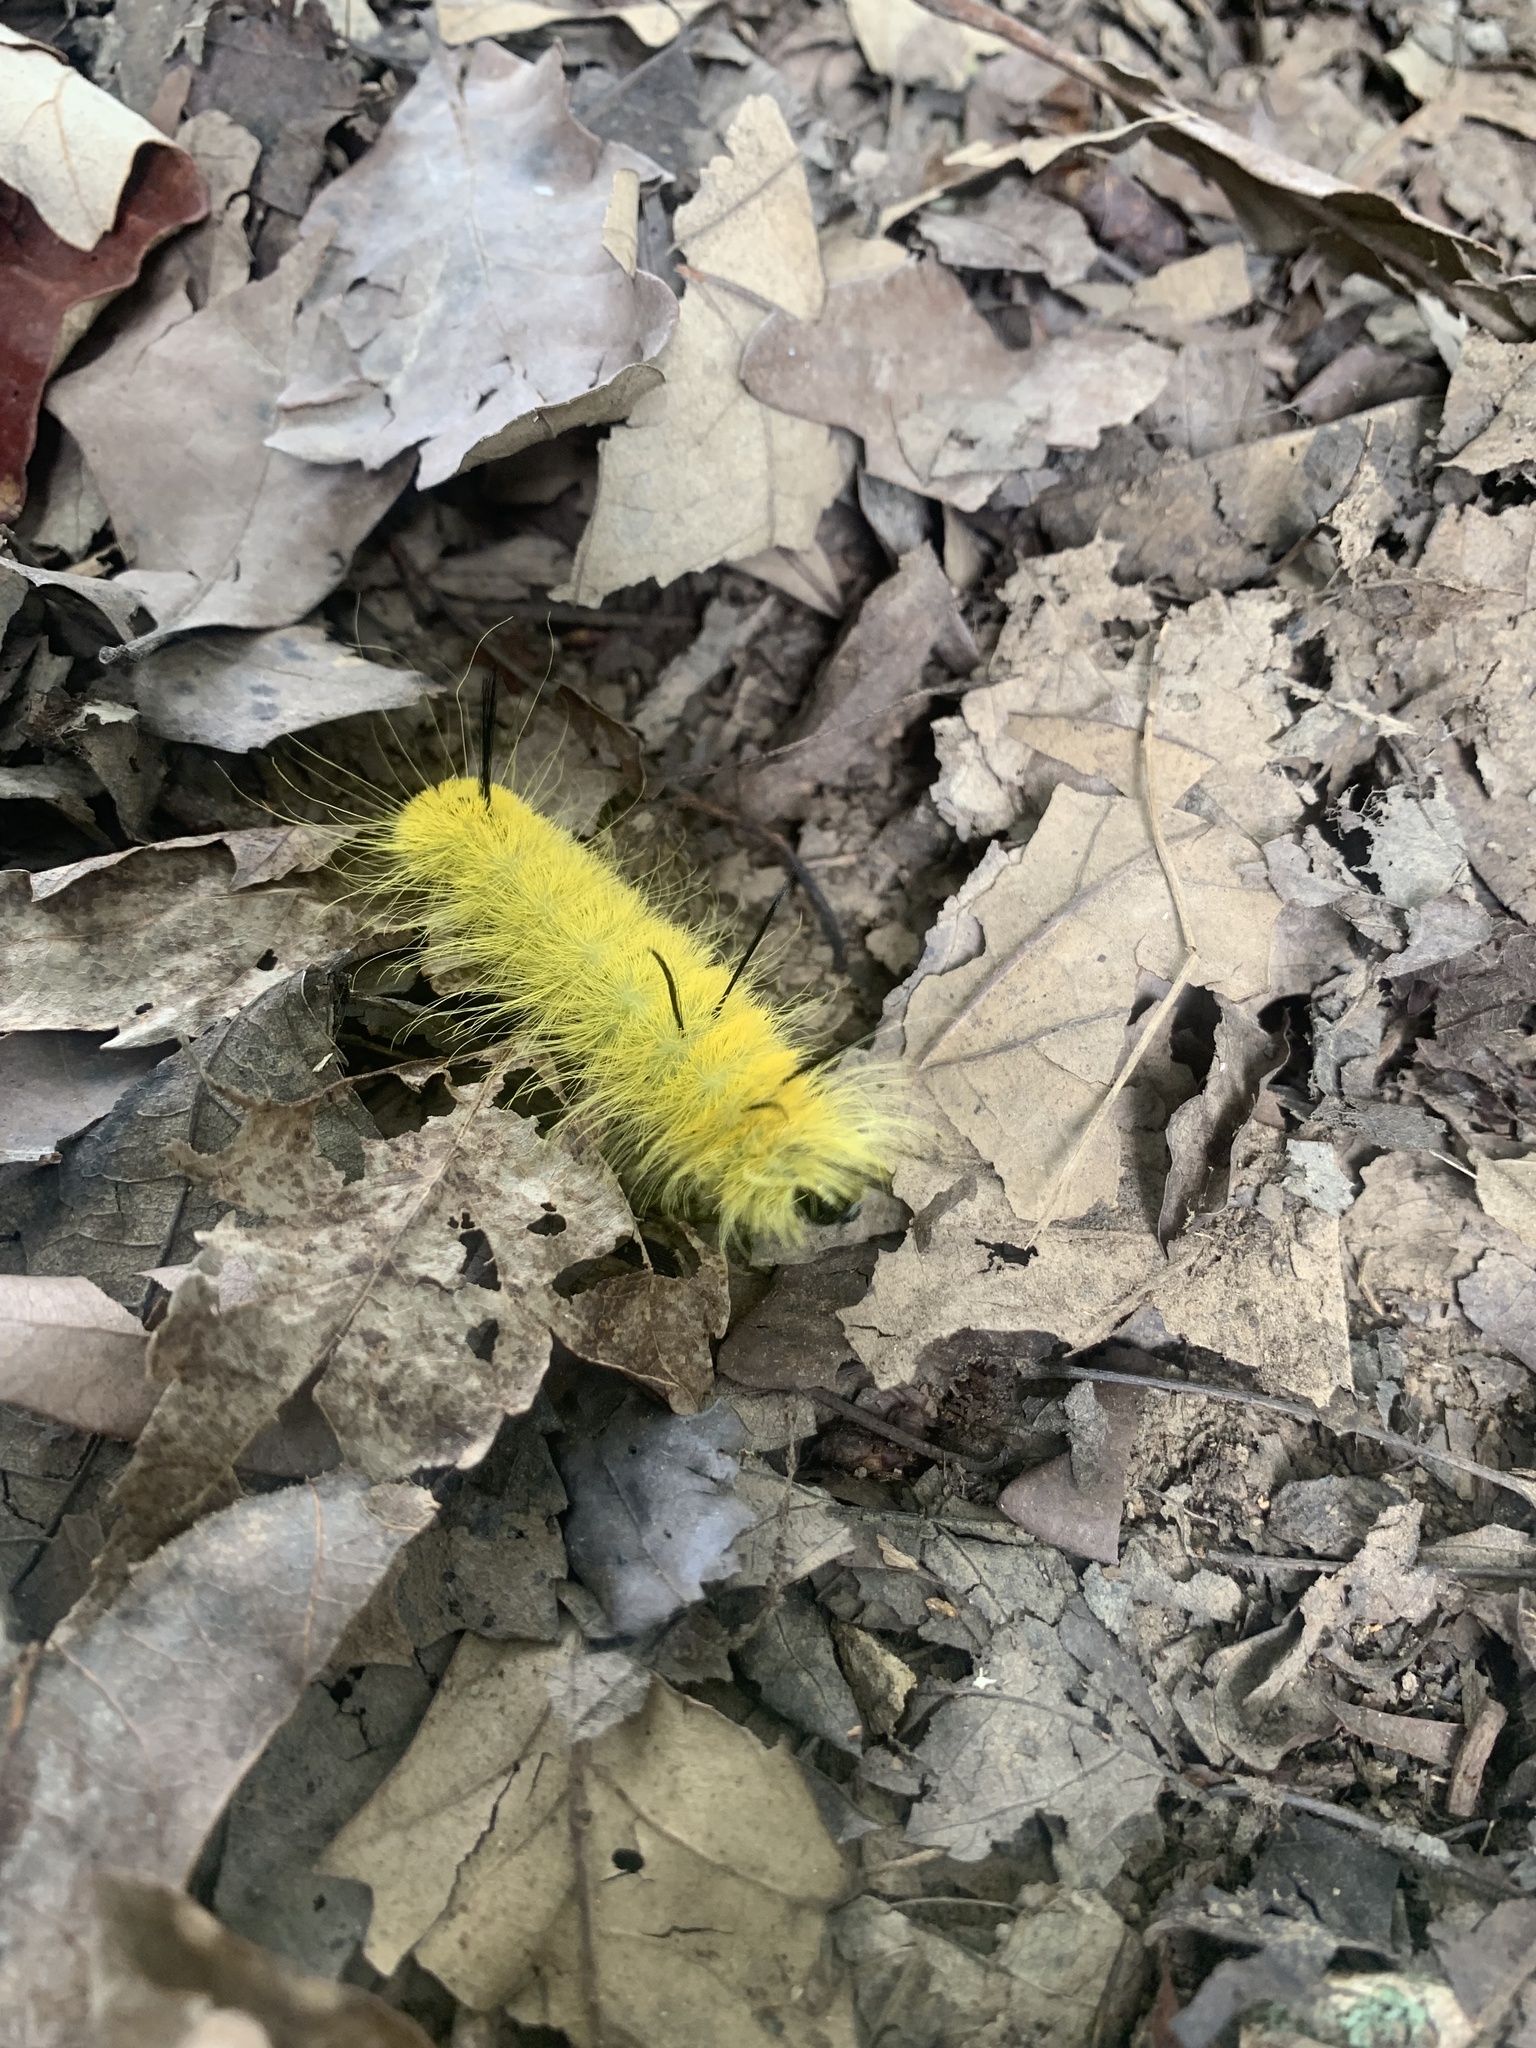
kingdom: Animalia
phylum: Arthropoda
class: Insecta
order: Lepidoptera
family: Noctuidae
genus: Acronicta
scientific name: Acronicta americana
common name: American dagger
